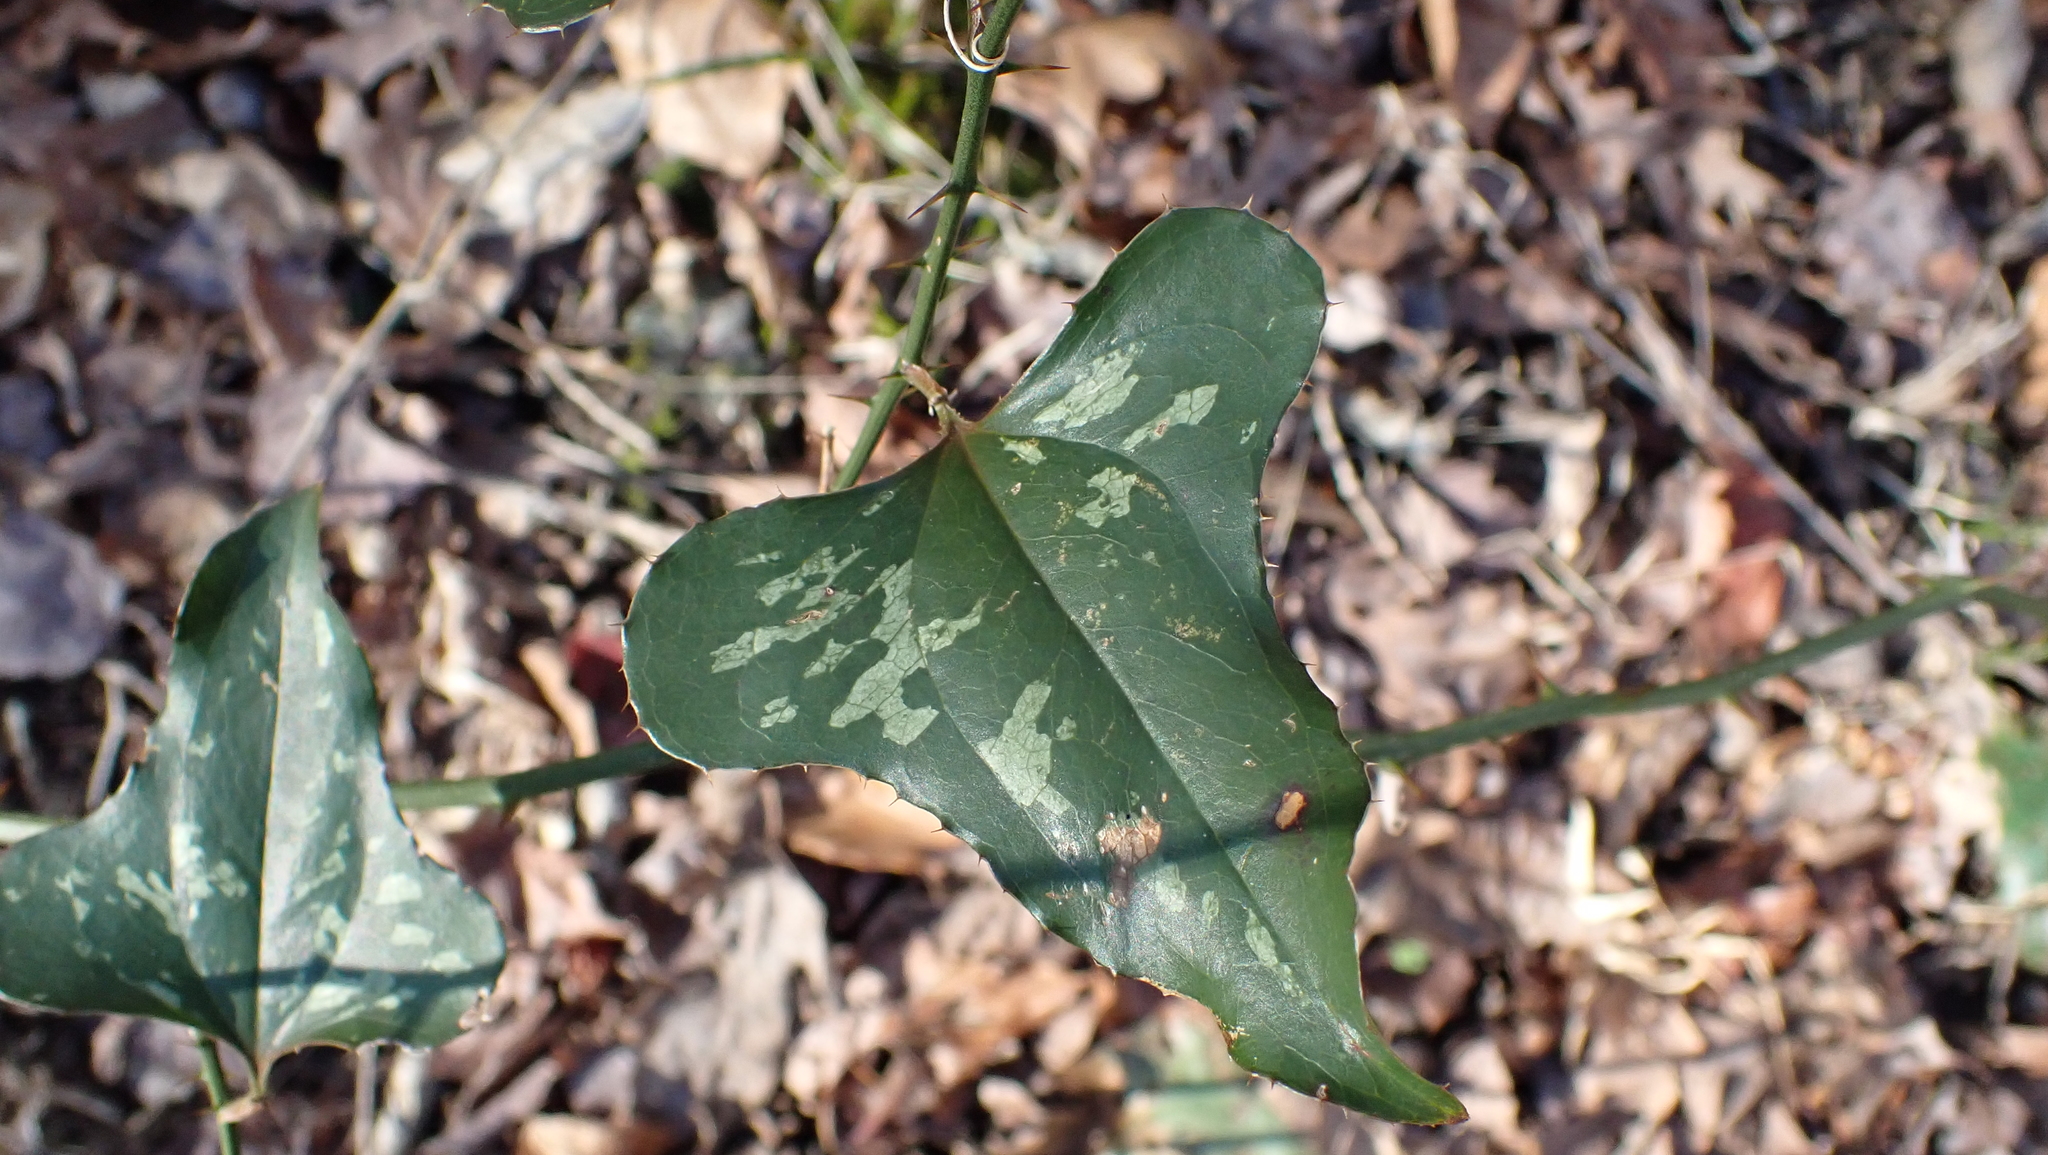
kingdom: Plantae
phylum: Tracheophyta
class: Liliopsida
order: Liliales
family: Smilacaceae
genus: Smilax
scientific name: Smilax bona-nox
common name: Catbrier
